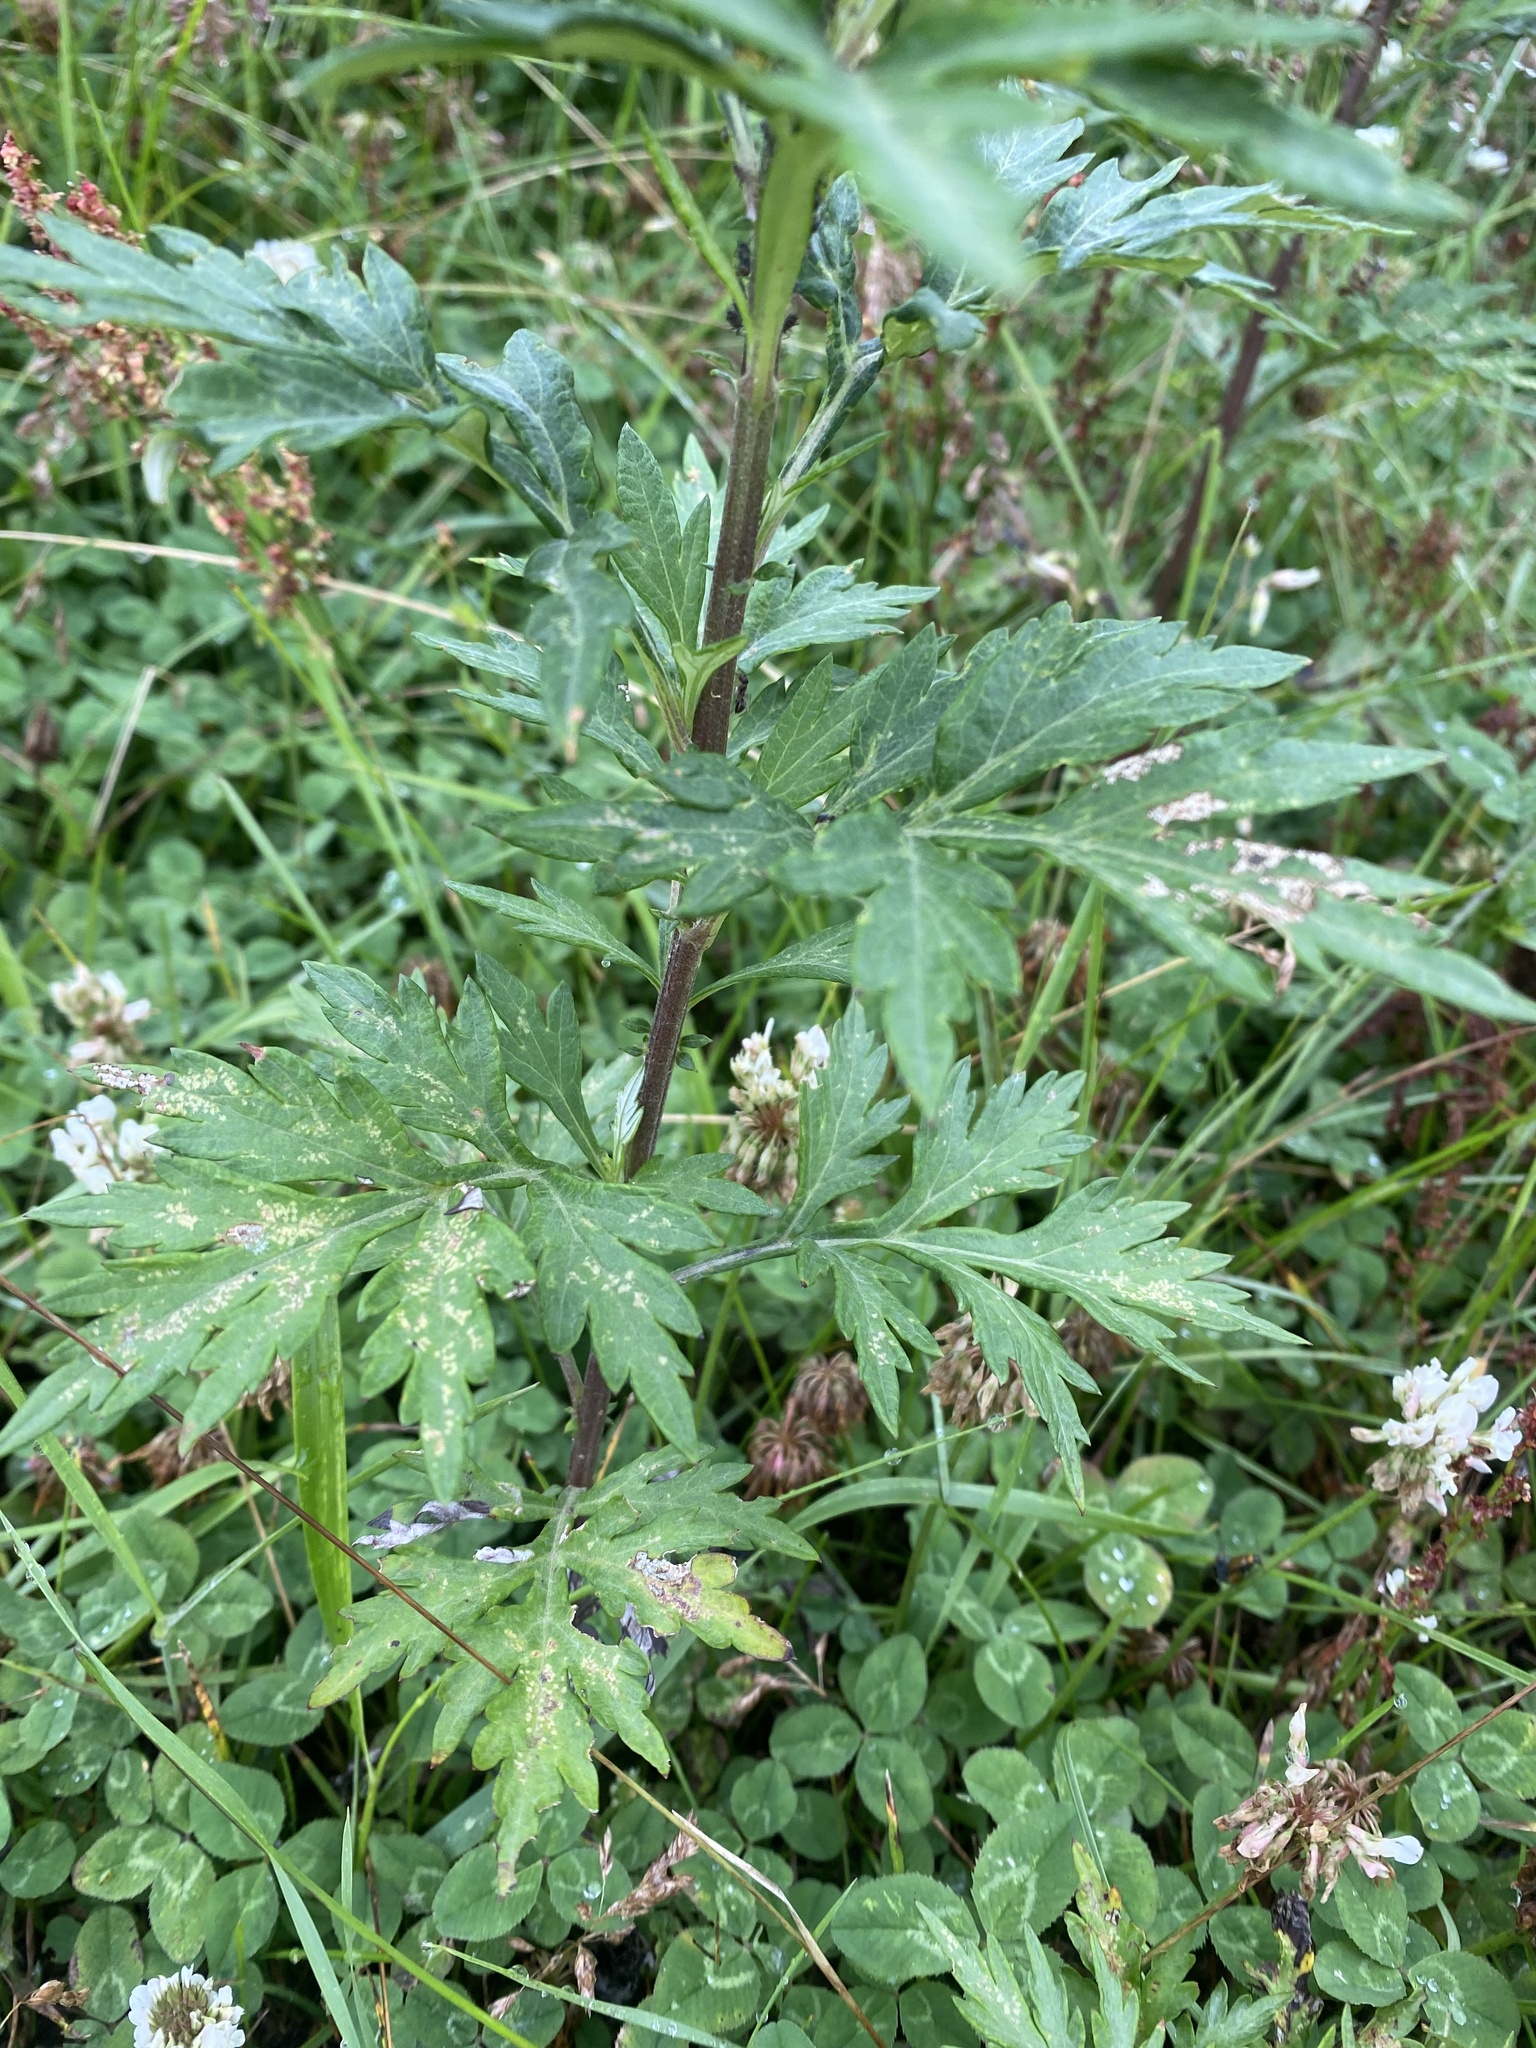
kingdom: Plantae
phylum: Tracheophyta
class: Magnoliopsida
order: Asterales
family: Asteraceae
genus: Jacobaea
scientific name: Jacobaea cannabifolia
